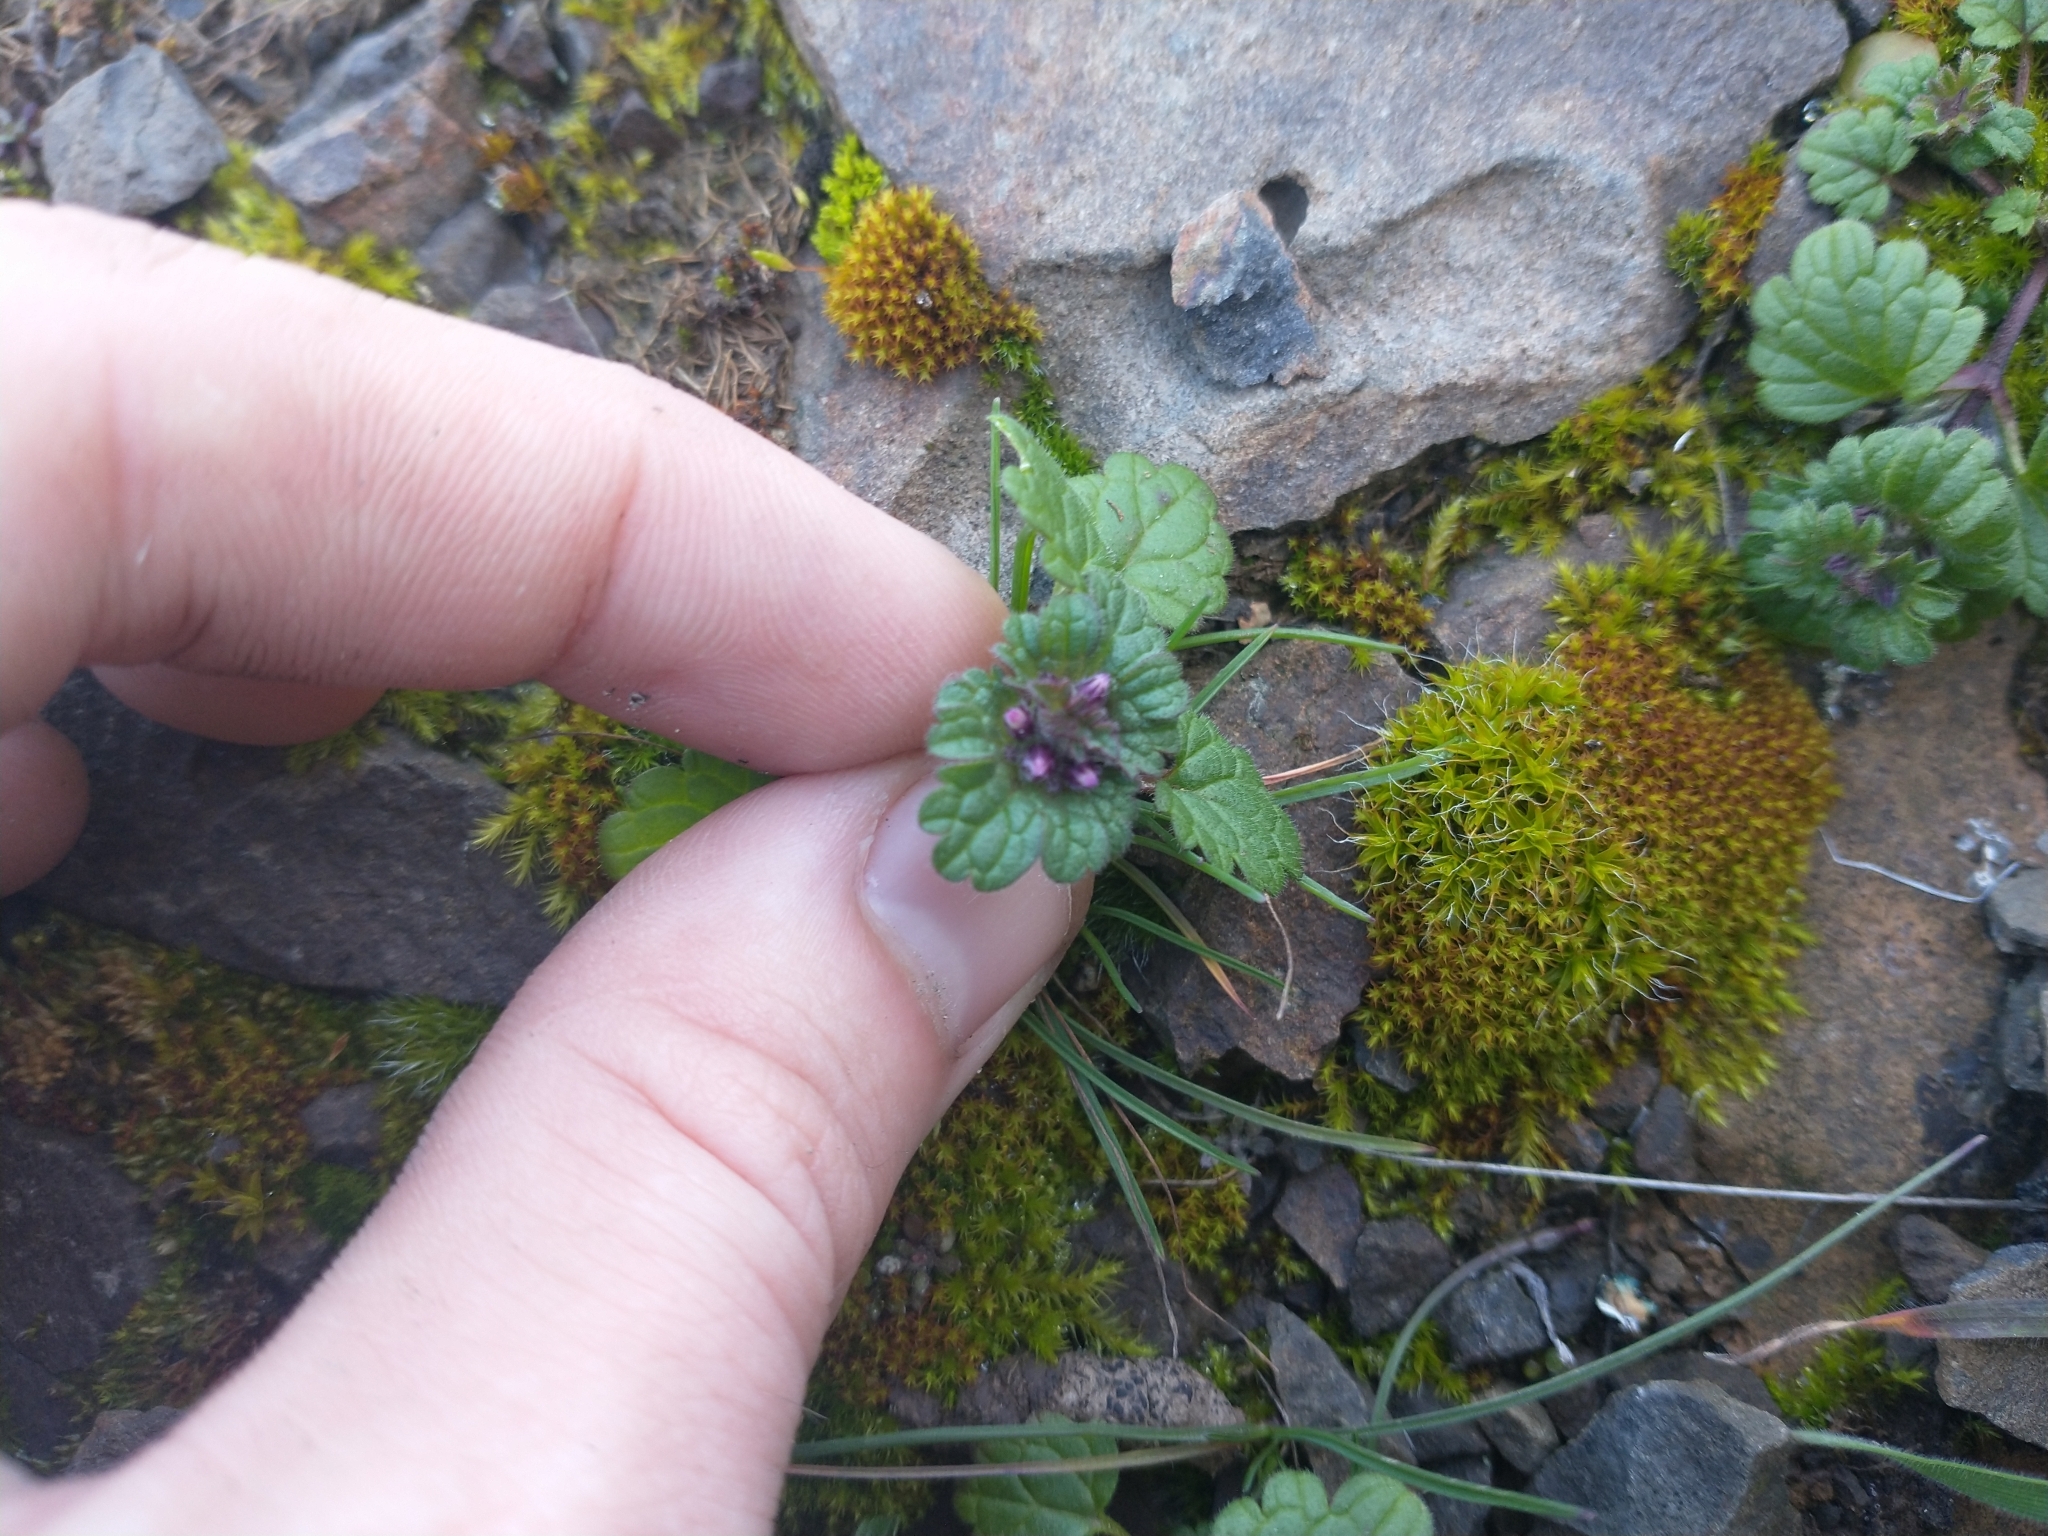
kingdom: Plantae
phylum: Tracheophyta
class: Magnoliopsida
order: Lamiales
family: Lamiaceae
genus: Lamium
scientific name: Lamium amplexicaule
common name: Henbit dead-nettle
